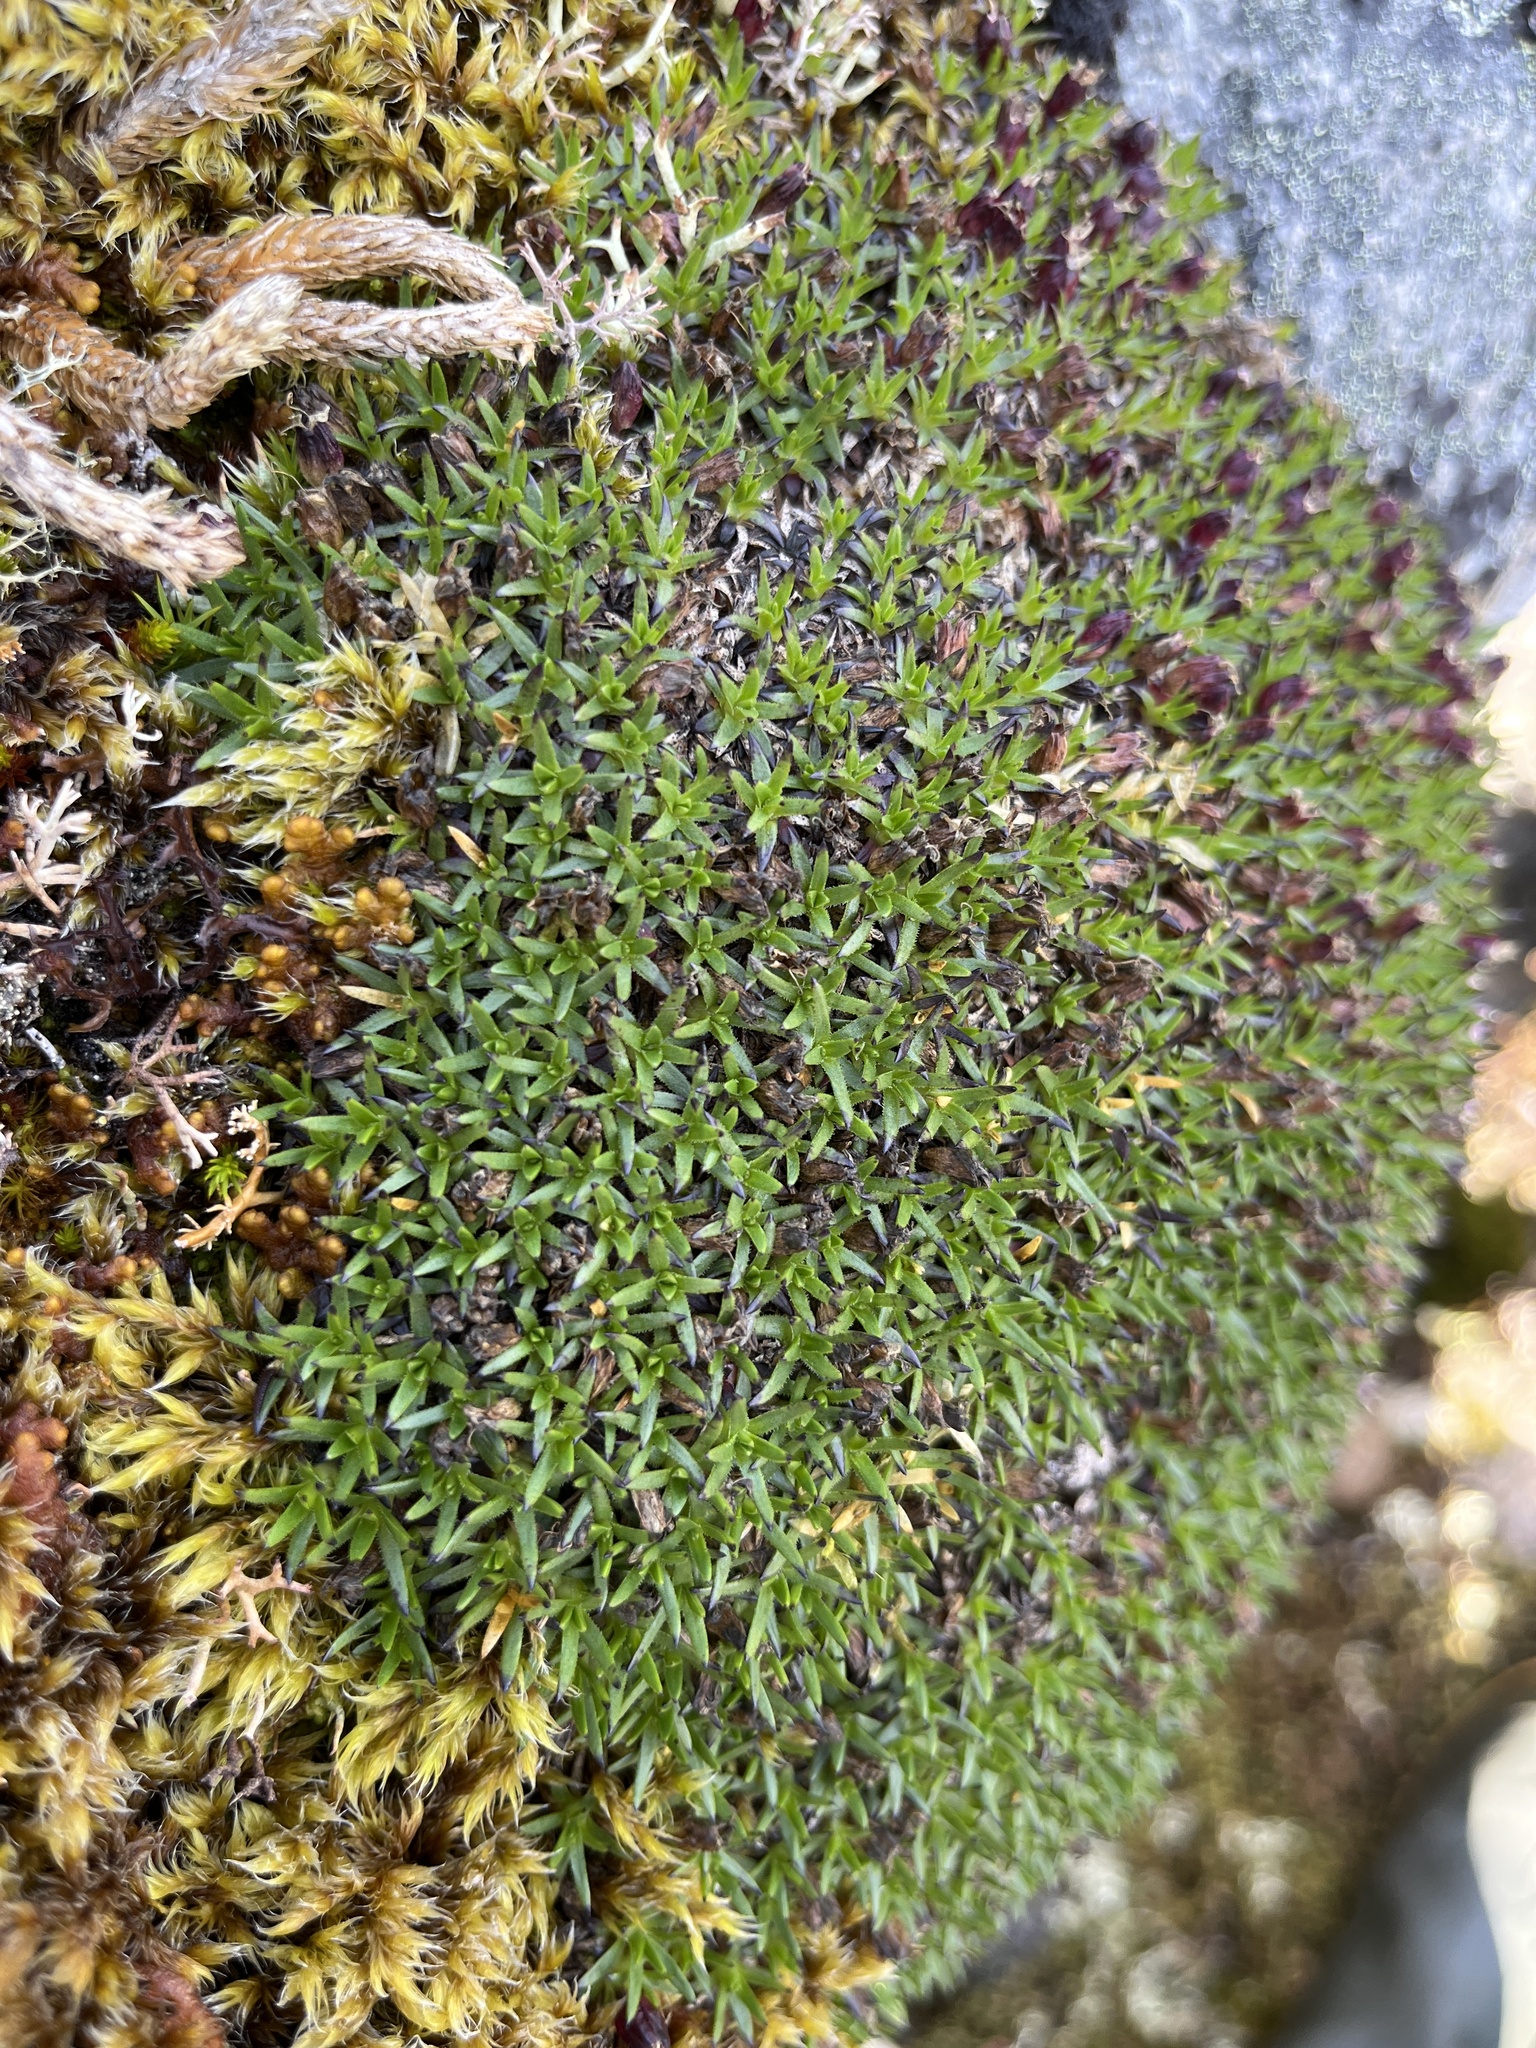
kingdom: Plantae
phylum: Tracheophyta
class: Magnoliopsida
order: Caryophyllales
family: Caryophyllaceae
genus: Silene
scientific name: Silene acaulis
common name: Moss campion
